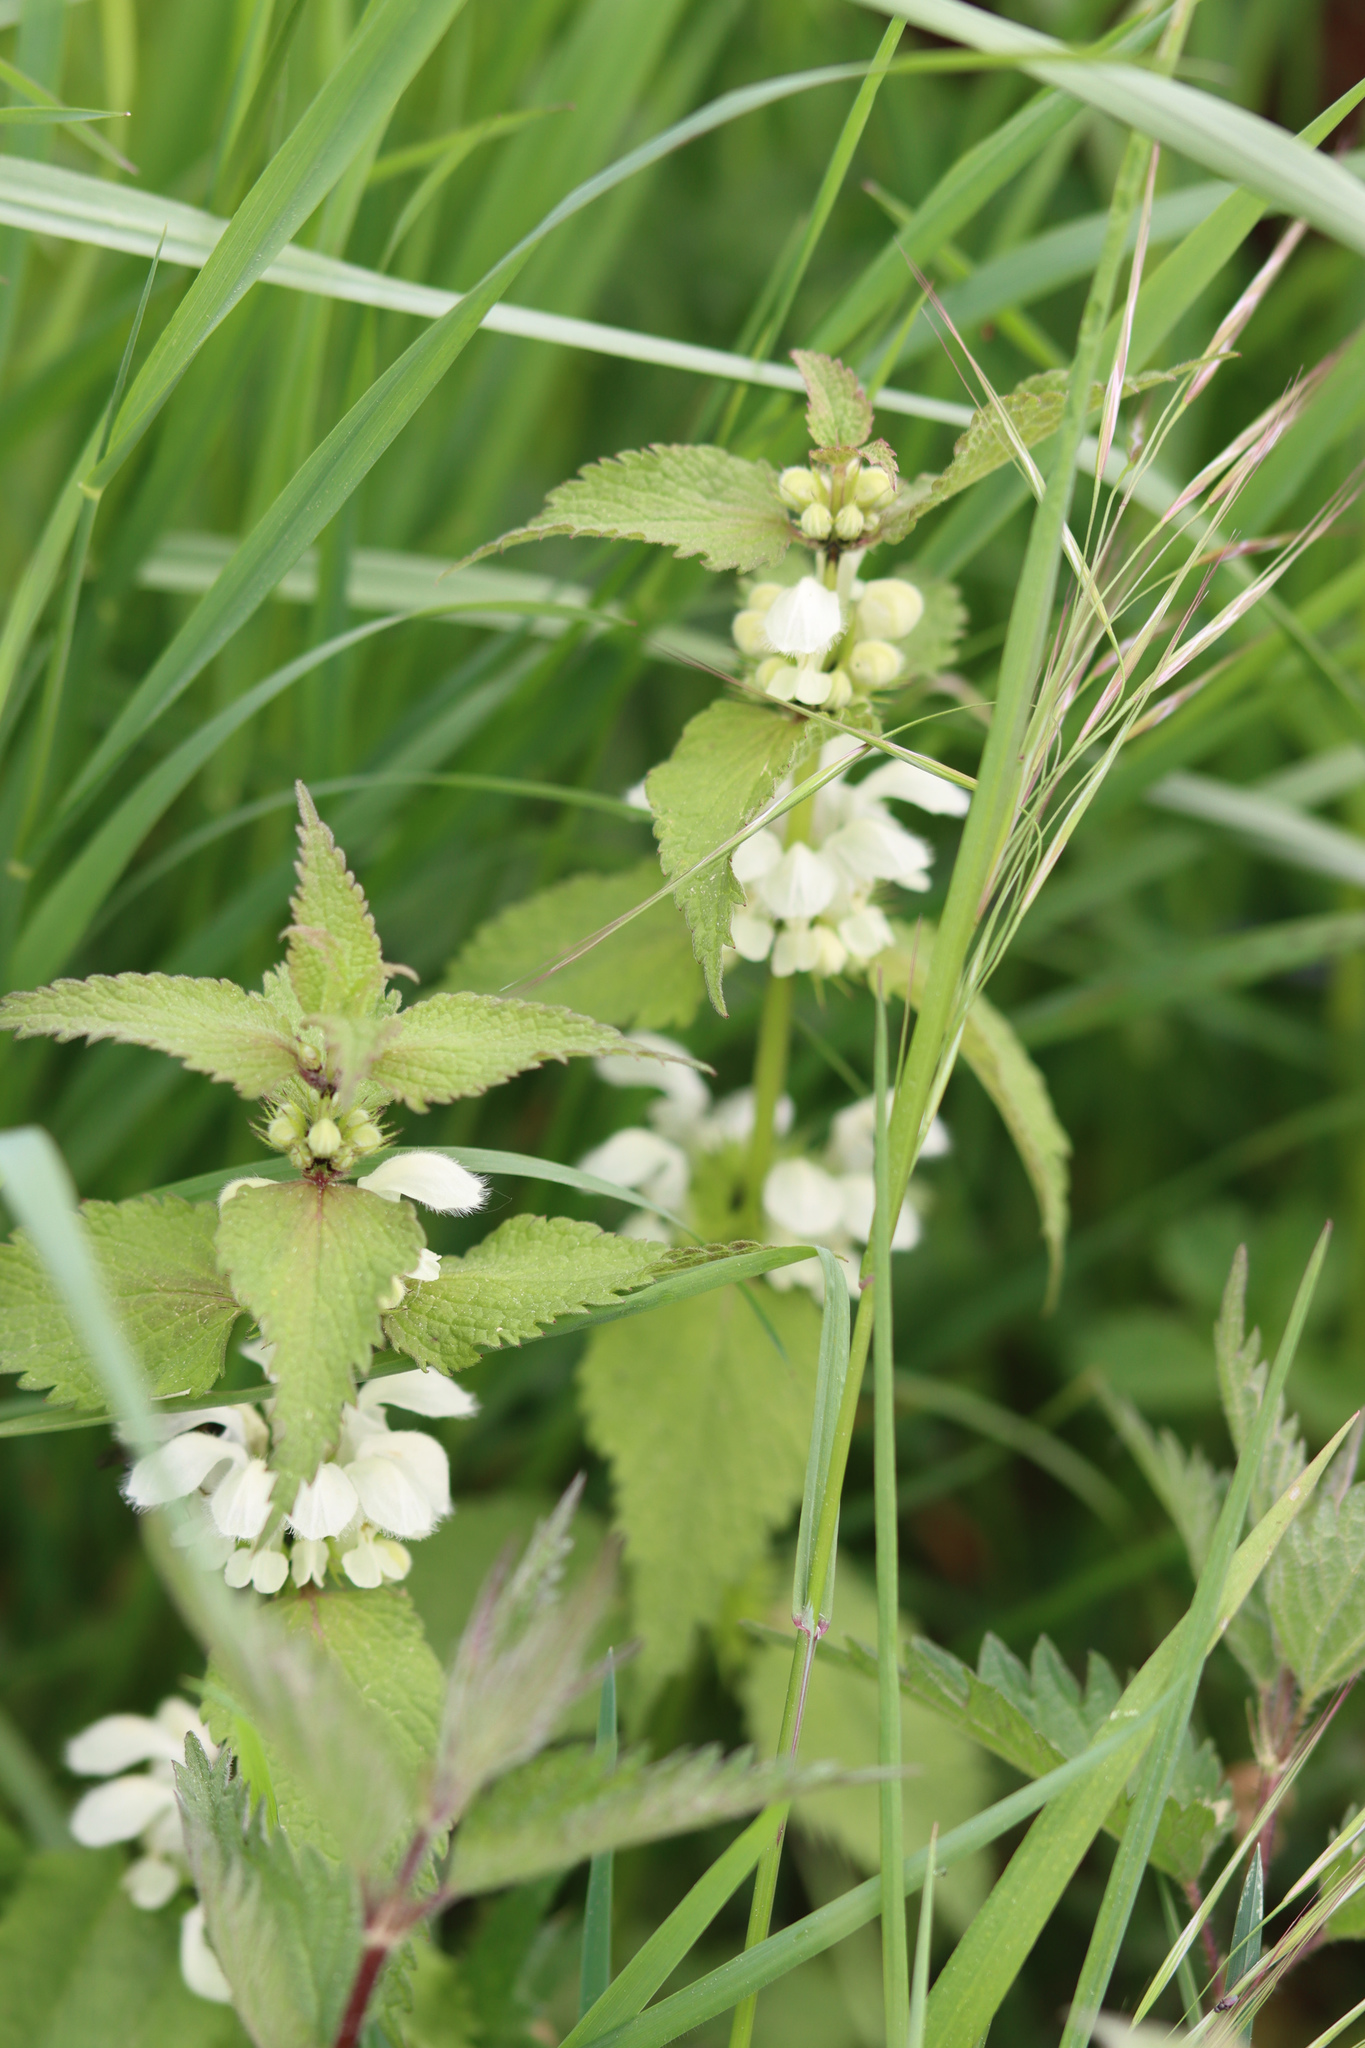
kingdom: Plantae
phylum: Tracheophyta
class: Magnoliopsida
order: Lamiales
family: Lamiaceae
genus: Lamium
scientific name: Lamium album
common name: White dead-nettle
